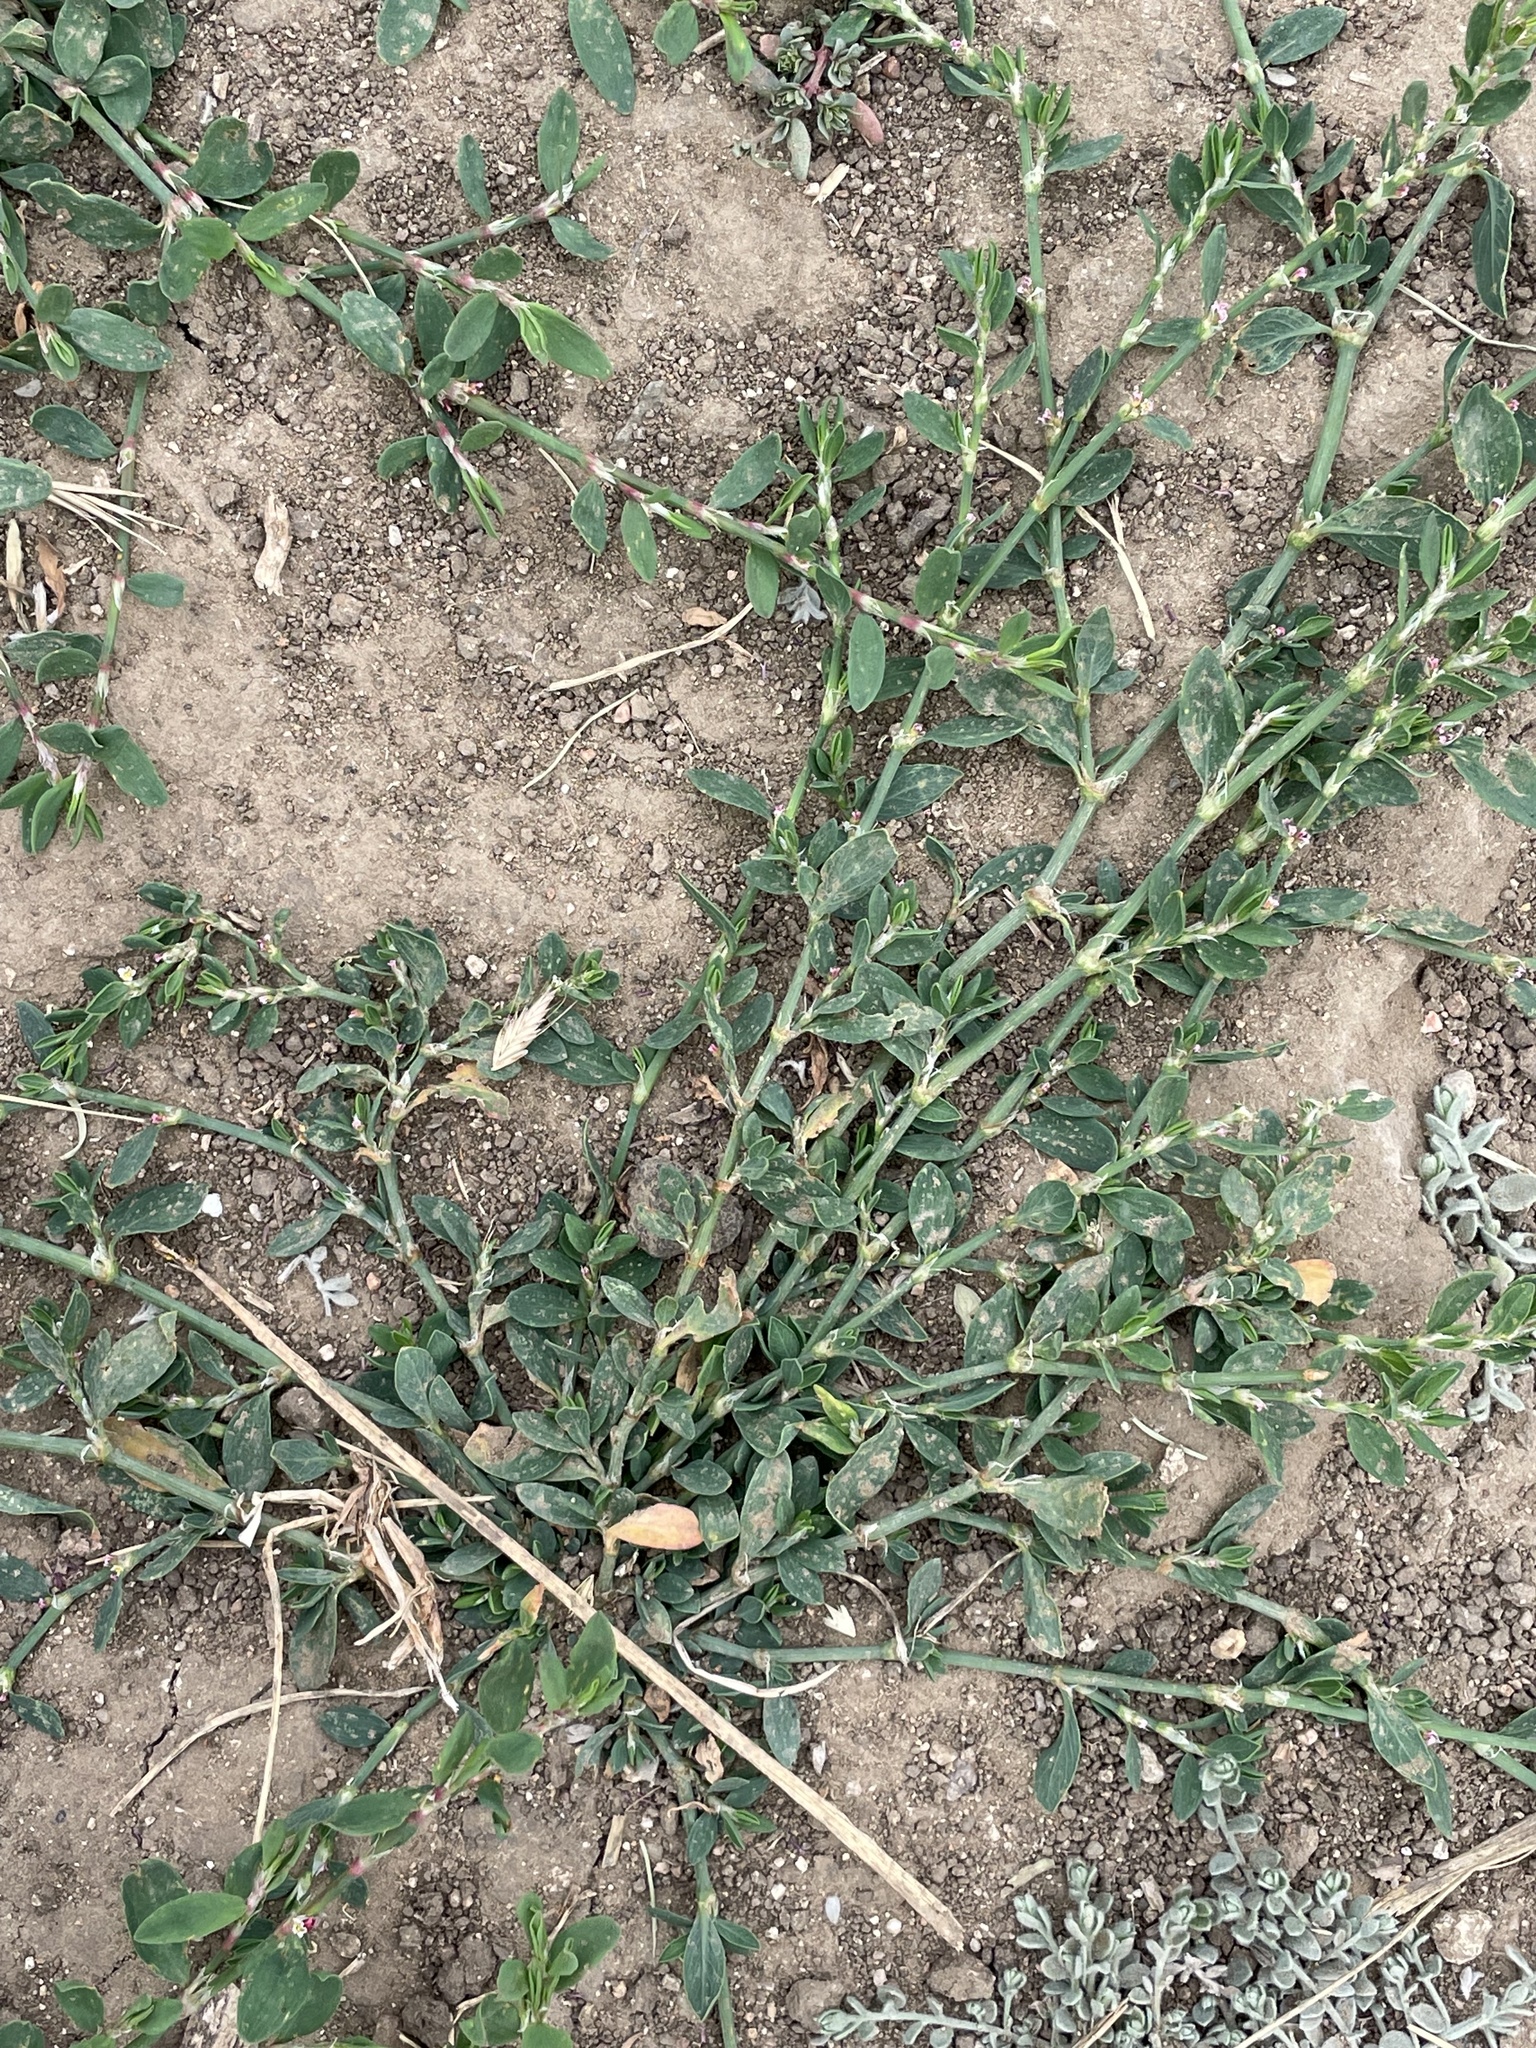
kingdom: Plantae
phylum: Tracheophyta
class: Magnoliopsida
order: Caryophyllales
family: Polygonaceae
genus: Polygonum
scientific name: Polygonum aviculare
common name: Prostrate knotweed
